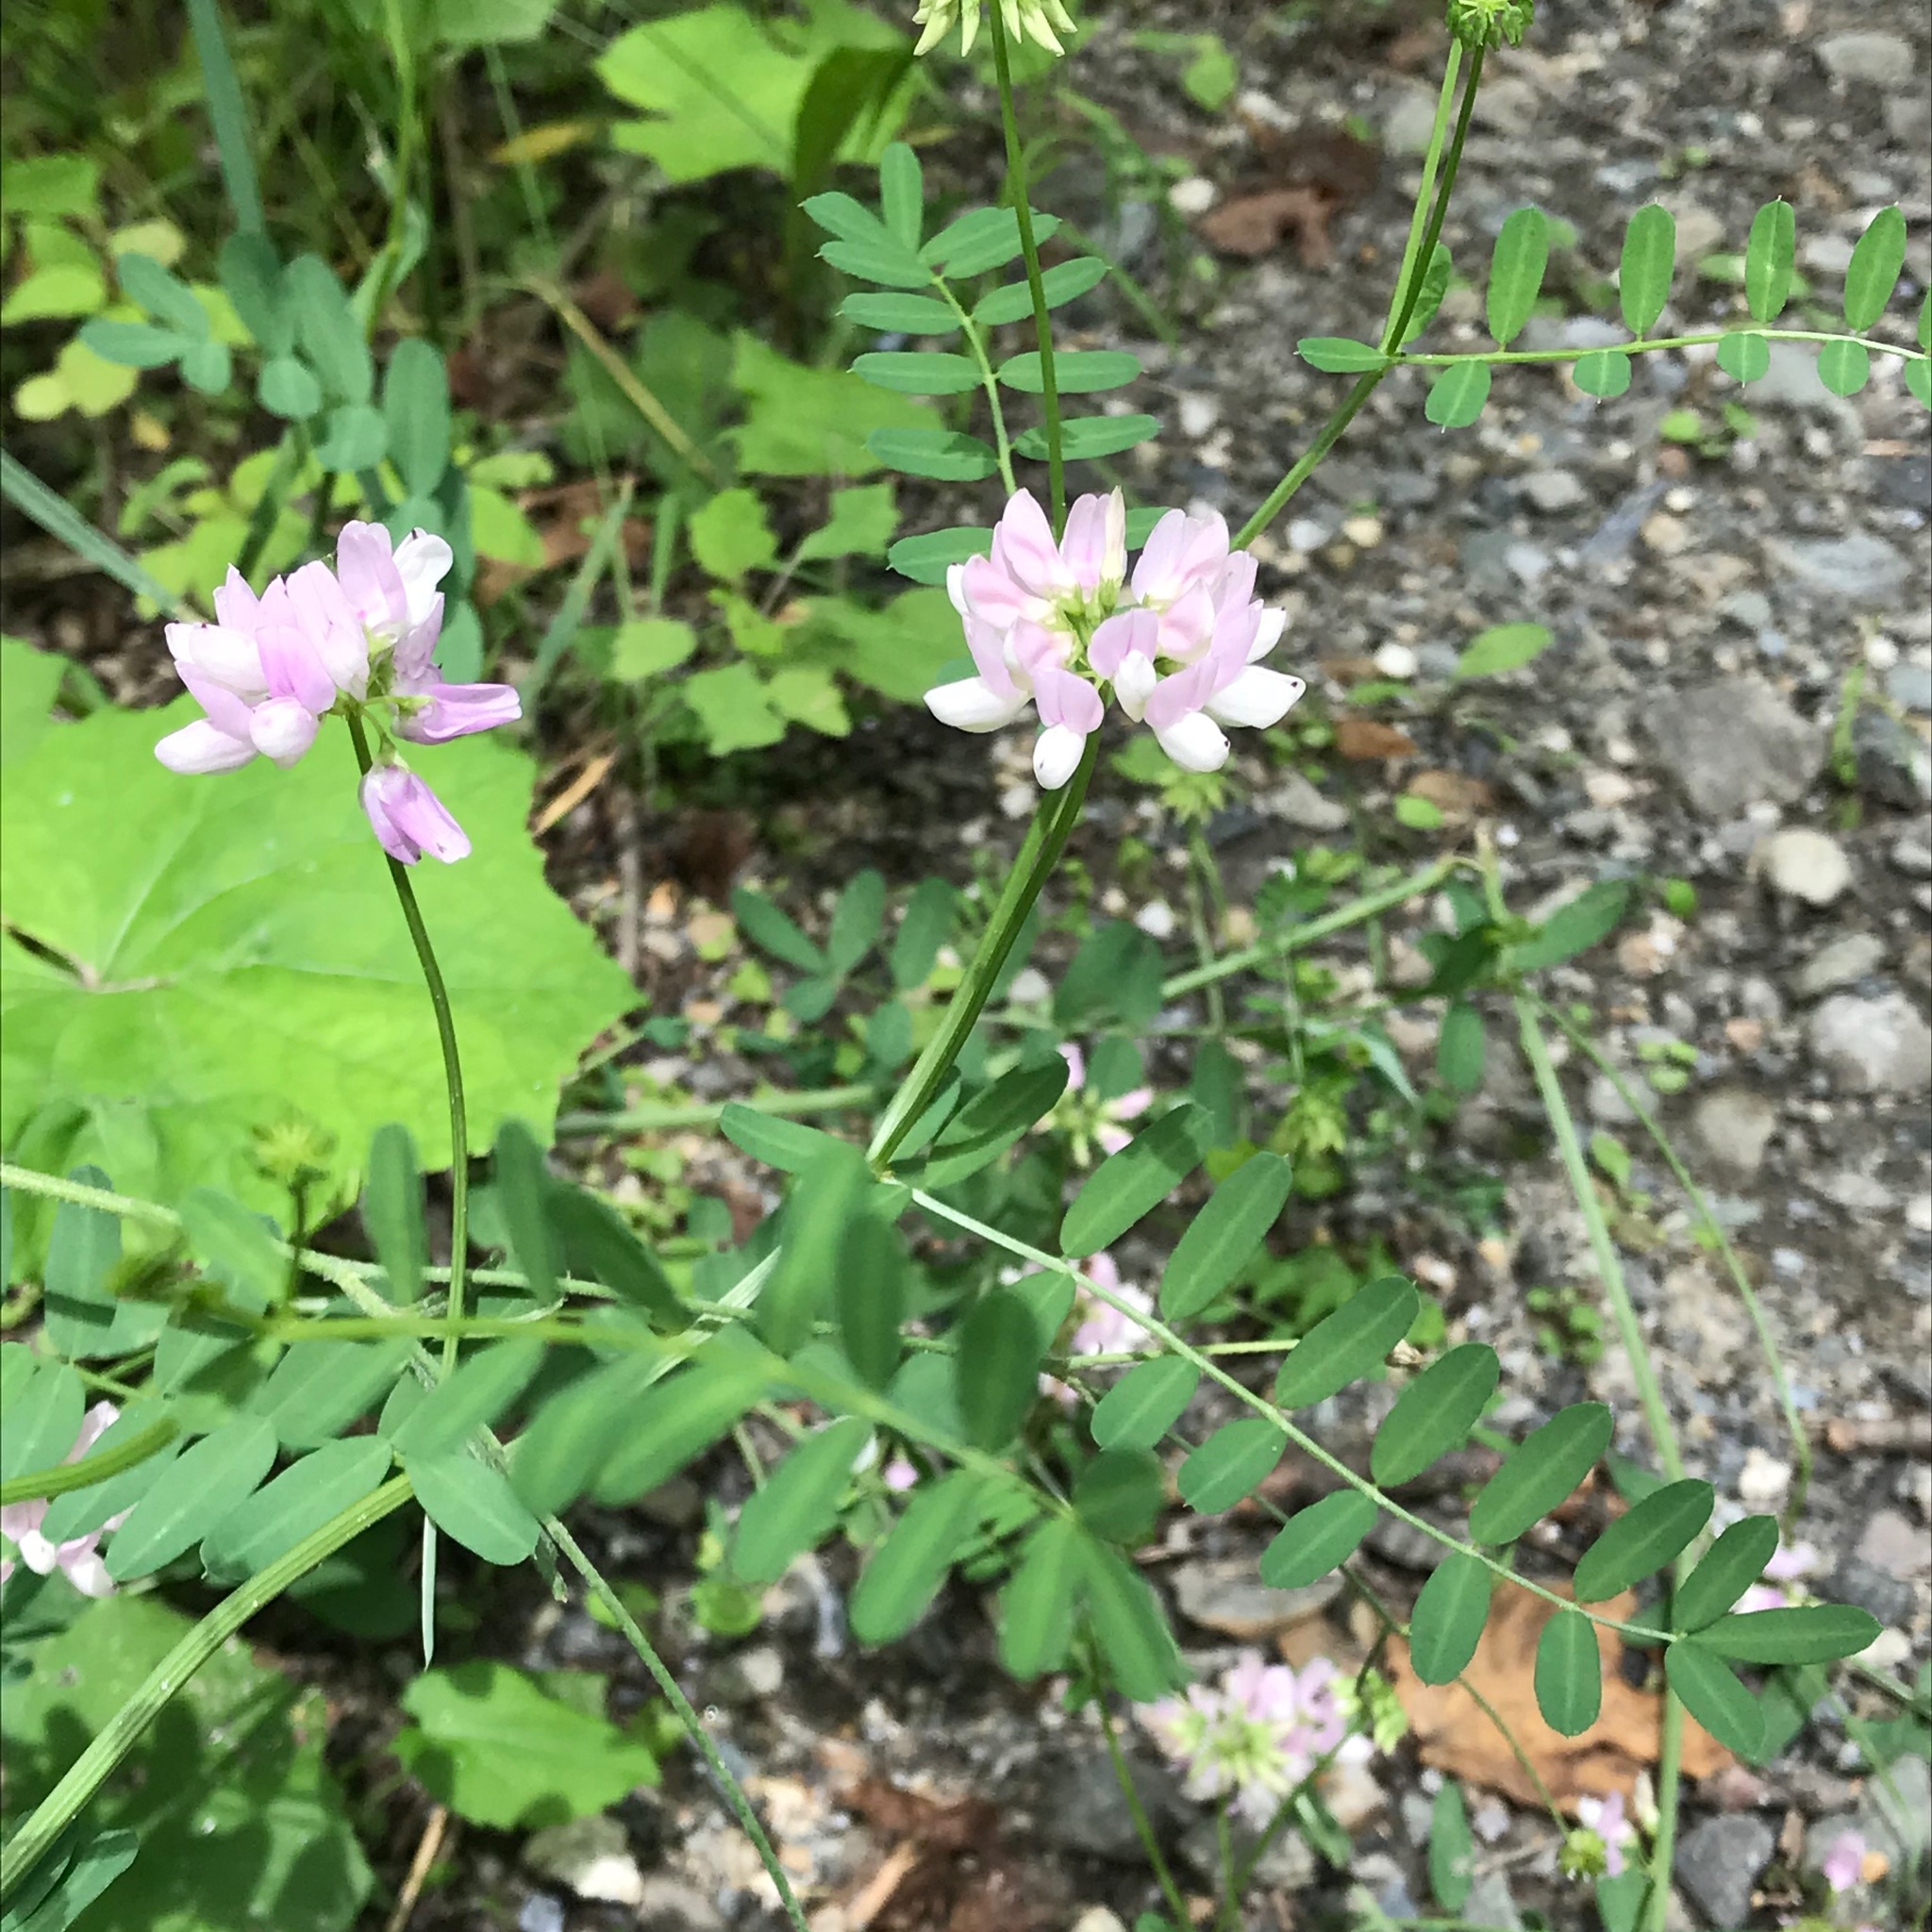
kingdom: Plantae
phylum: Tracheophyta
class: Magnoliopsida
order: Fabales
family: Fabaceae
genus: Coronilla
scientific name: Coronilla varia
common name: Crownvetch
